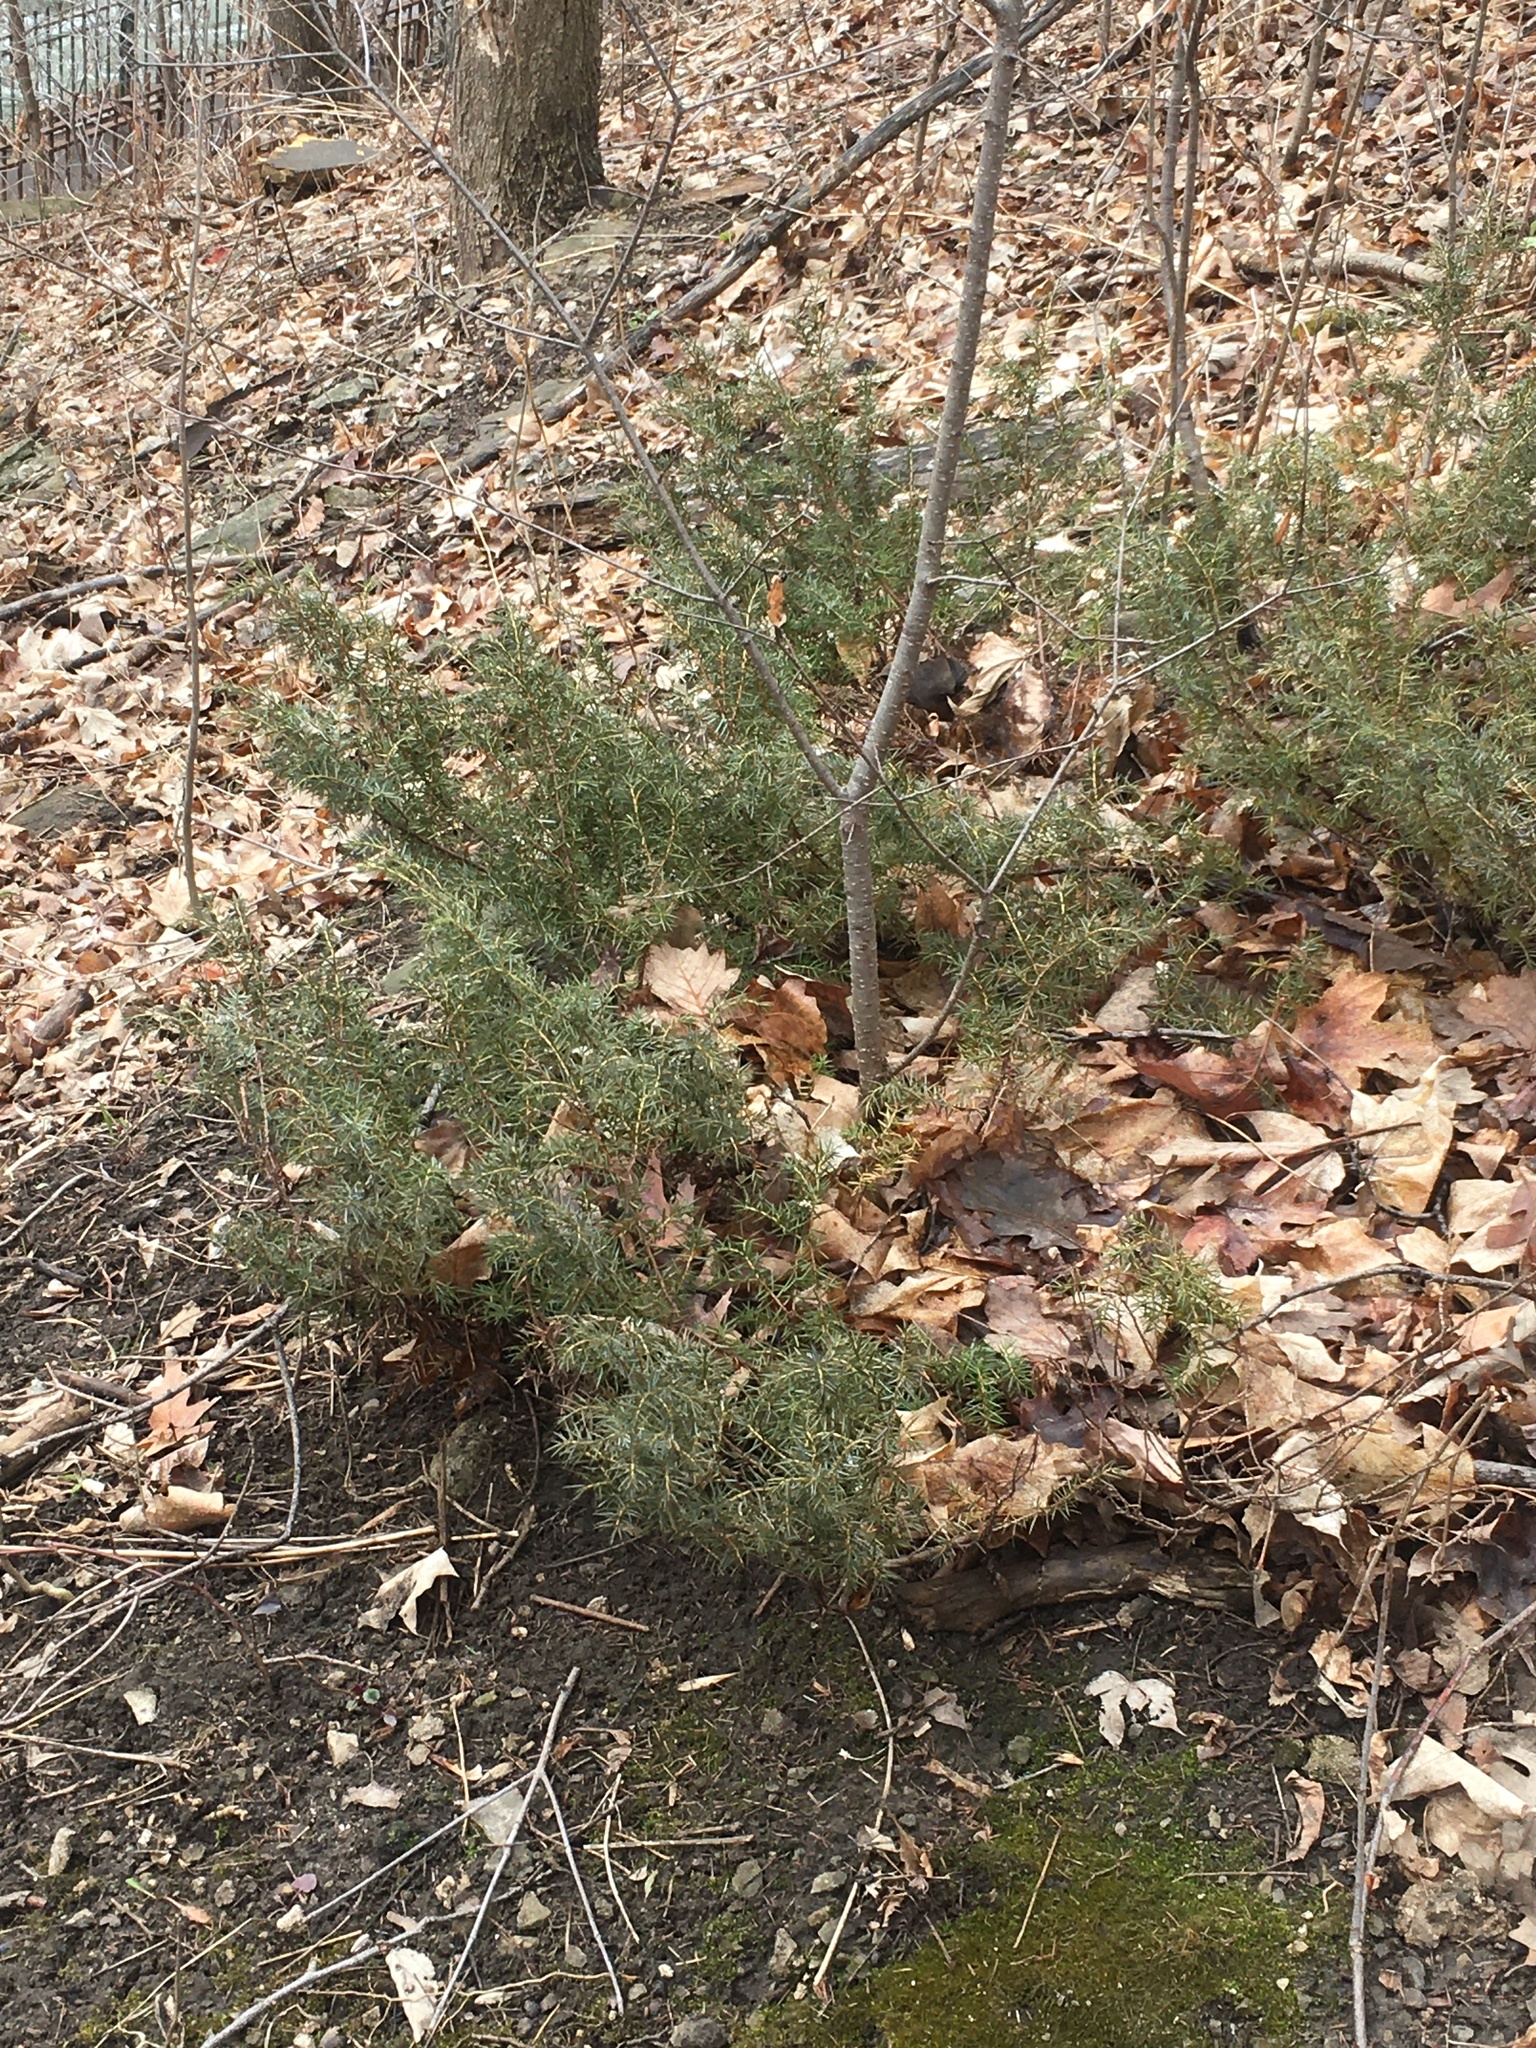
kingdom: Plantae
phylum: Tracheophyta
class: Pinopsida
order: Pinales
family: Cupressaceae
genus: Juniperus
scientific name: Juniperus communis
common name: Common juniper
